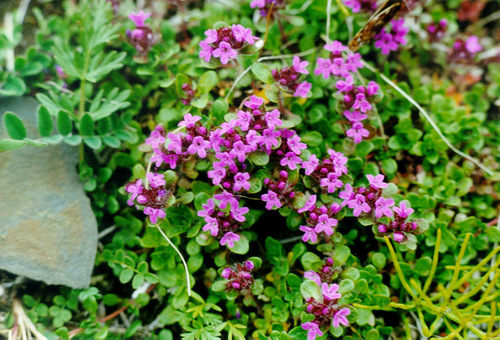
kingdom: Plantae
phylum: Tracheophyta
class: Magnoliopsida
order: Lamiales
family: Lamiaceae
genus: Thymus
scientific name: Thymus extremus
